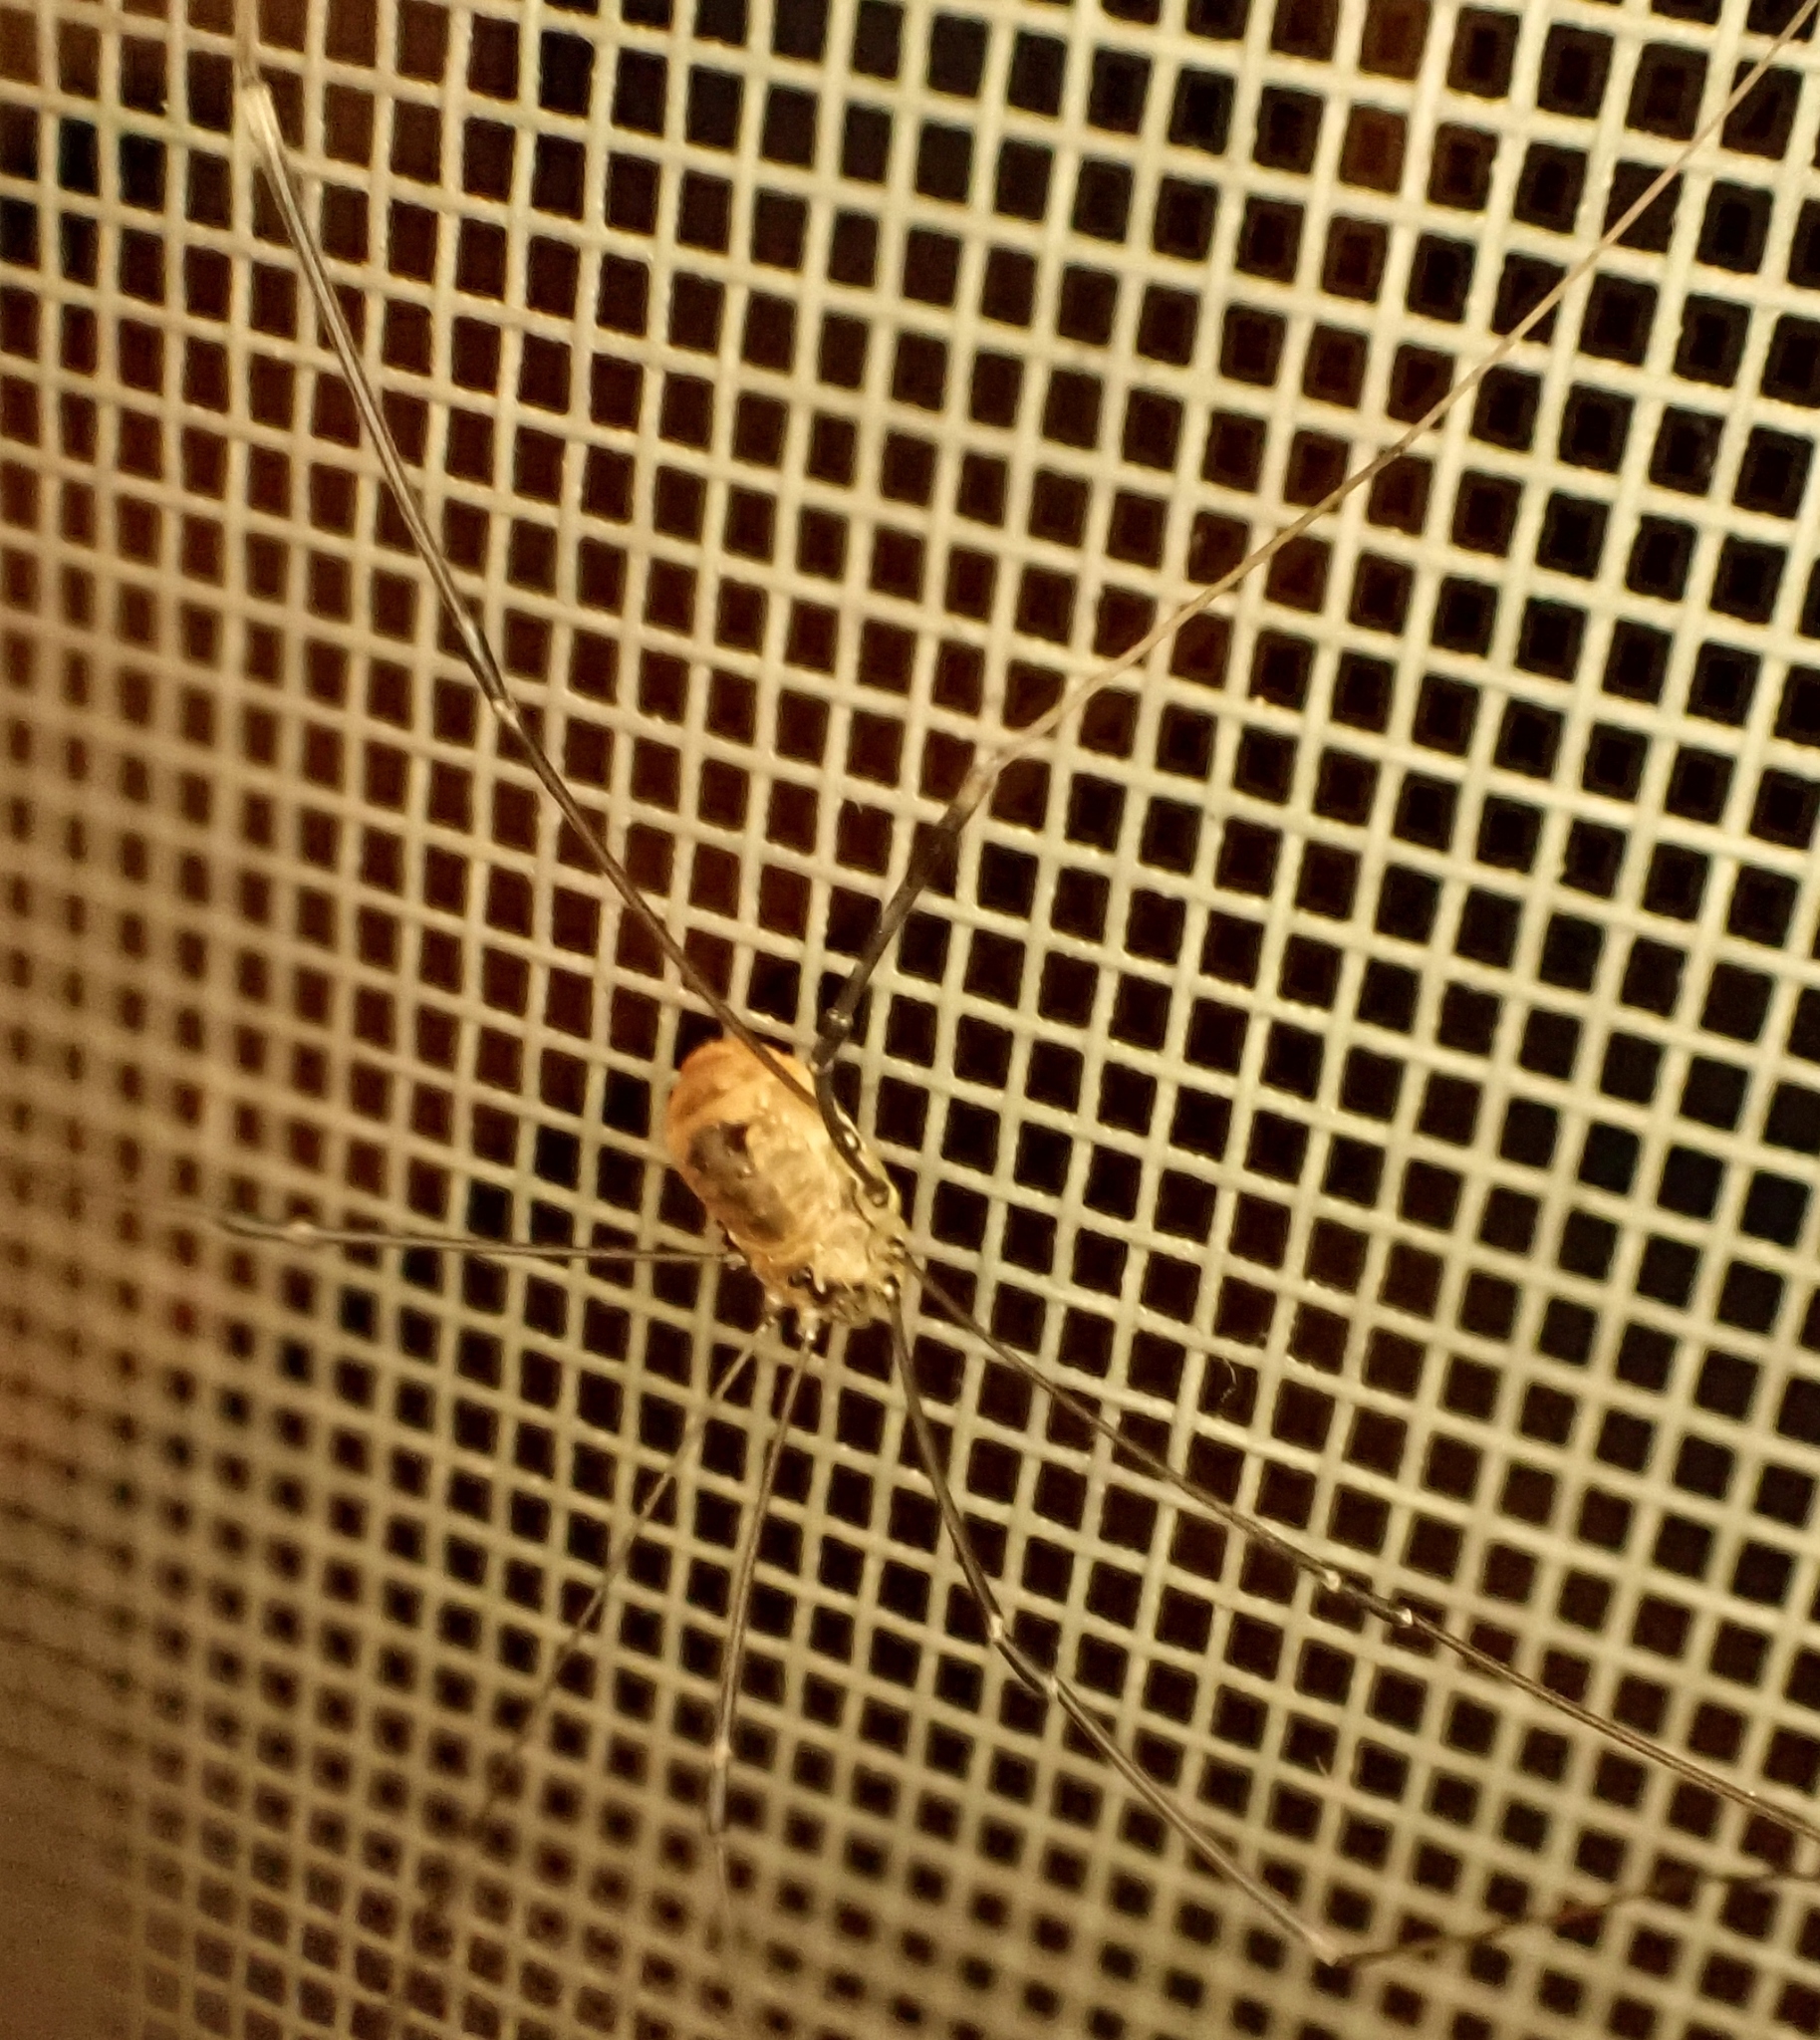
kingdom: Animalia
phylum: Arthropoda
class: Arachnida
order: Opiliones
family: Sclerosomatidae
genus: Leiobunum
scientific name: Leiobunum rotundum
